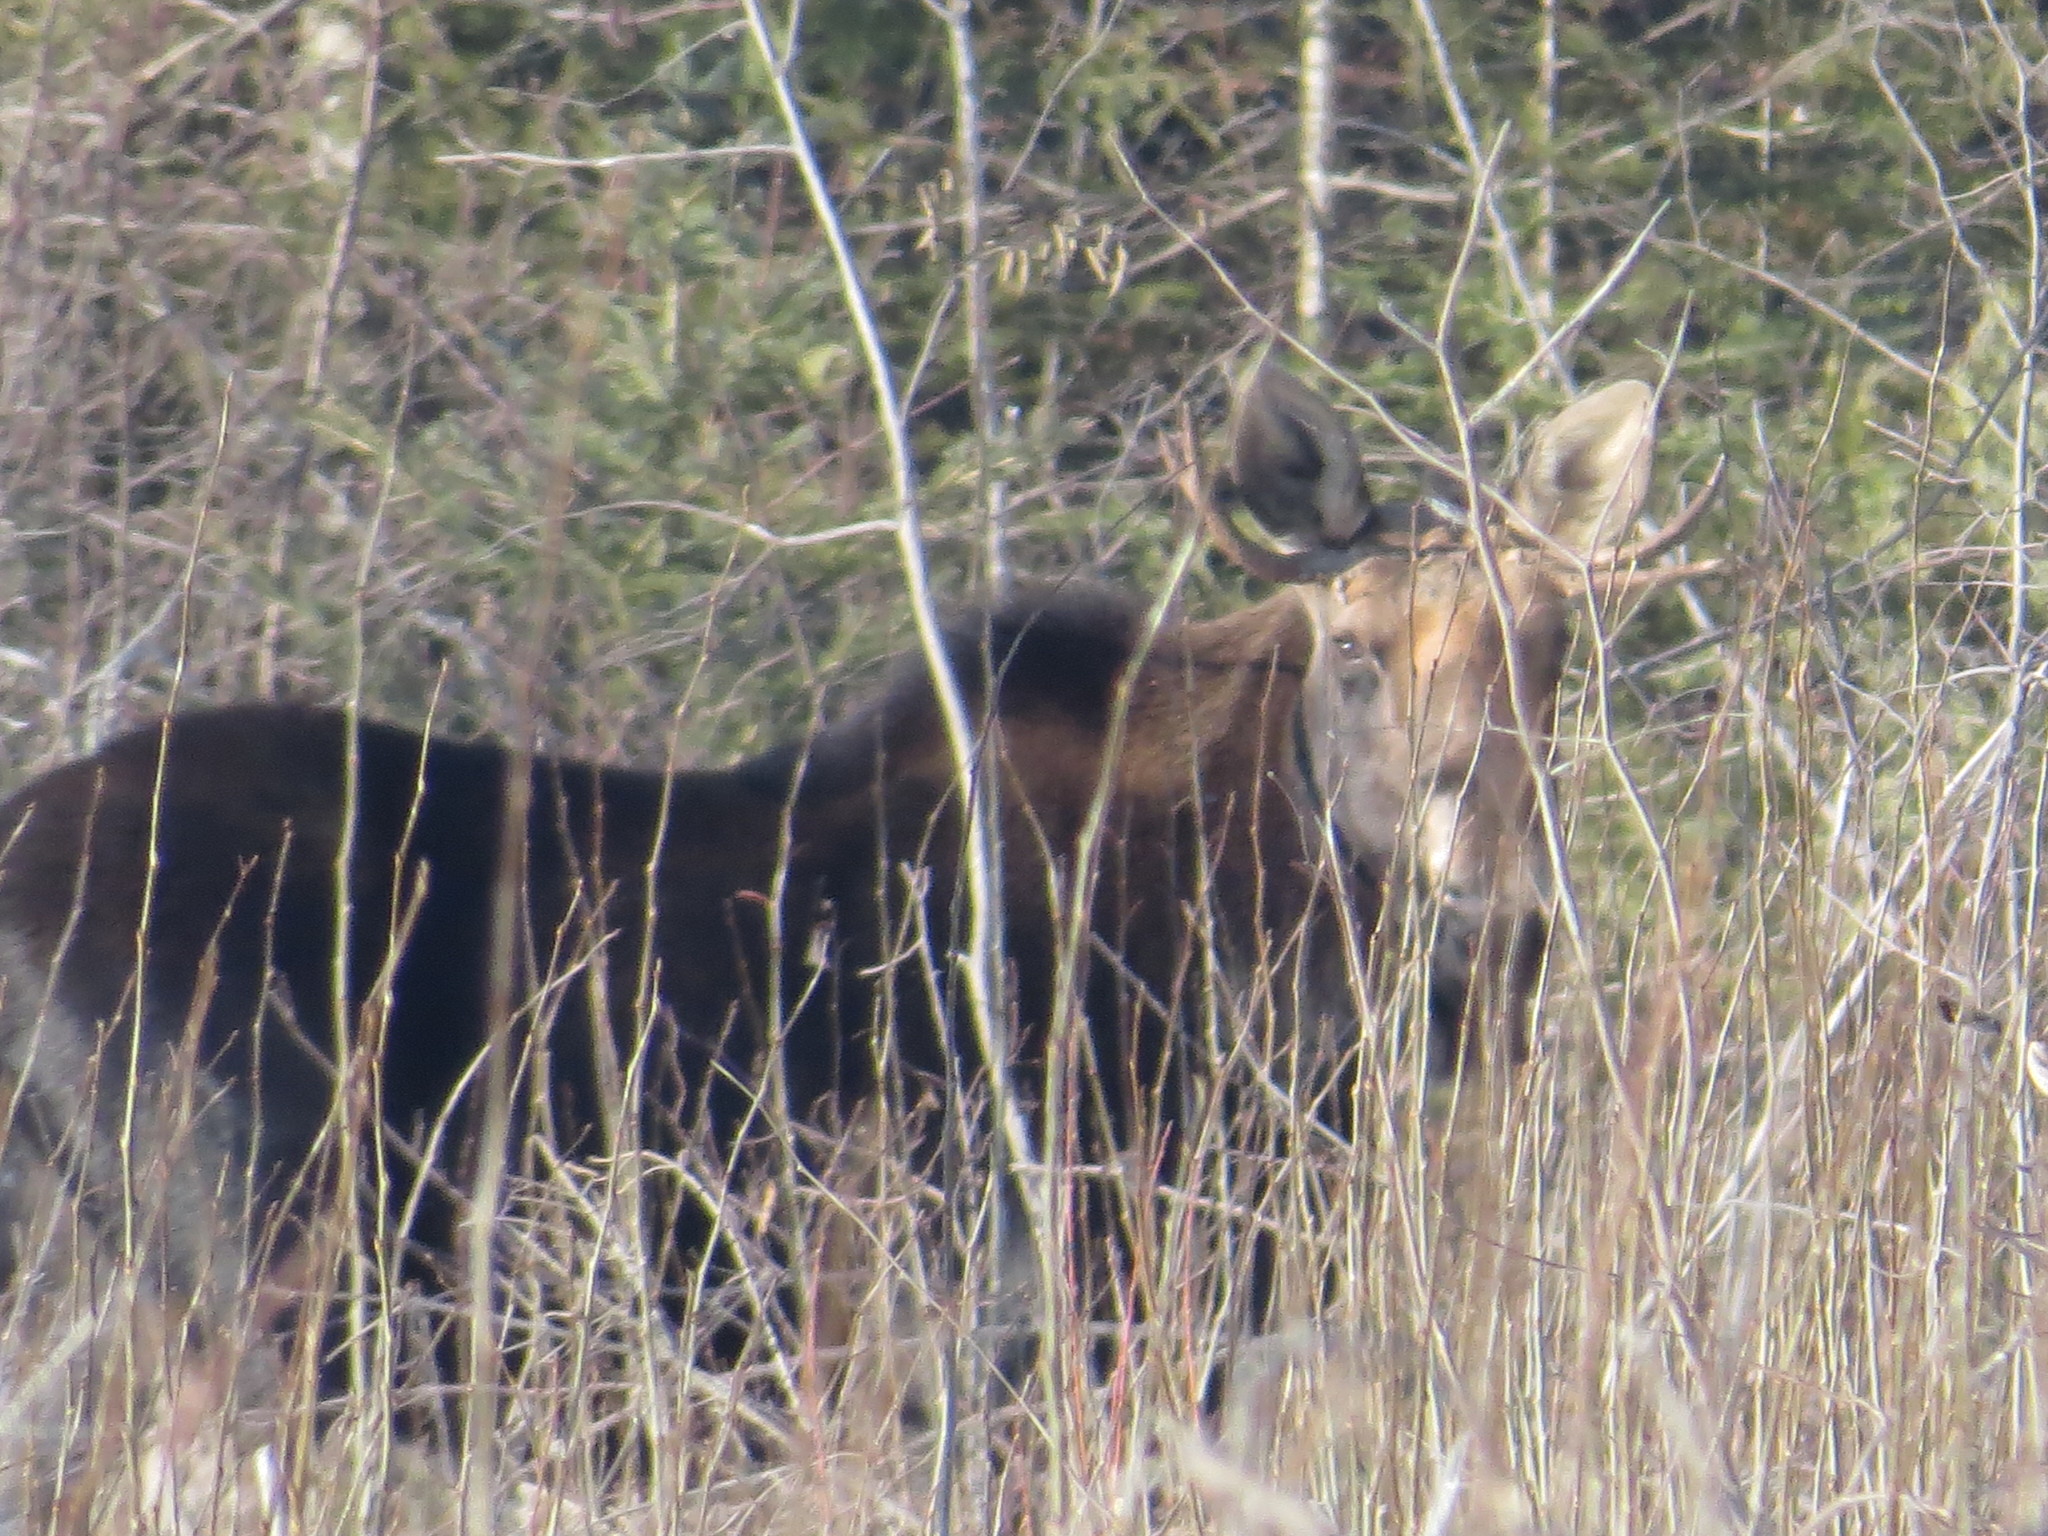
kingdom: Animalia
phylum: Chordata
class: Mammalia
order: Artiodactyla
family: Cervidae
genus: Alces
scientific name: Alces alces
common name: Moose
